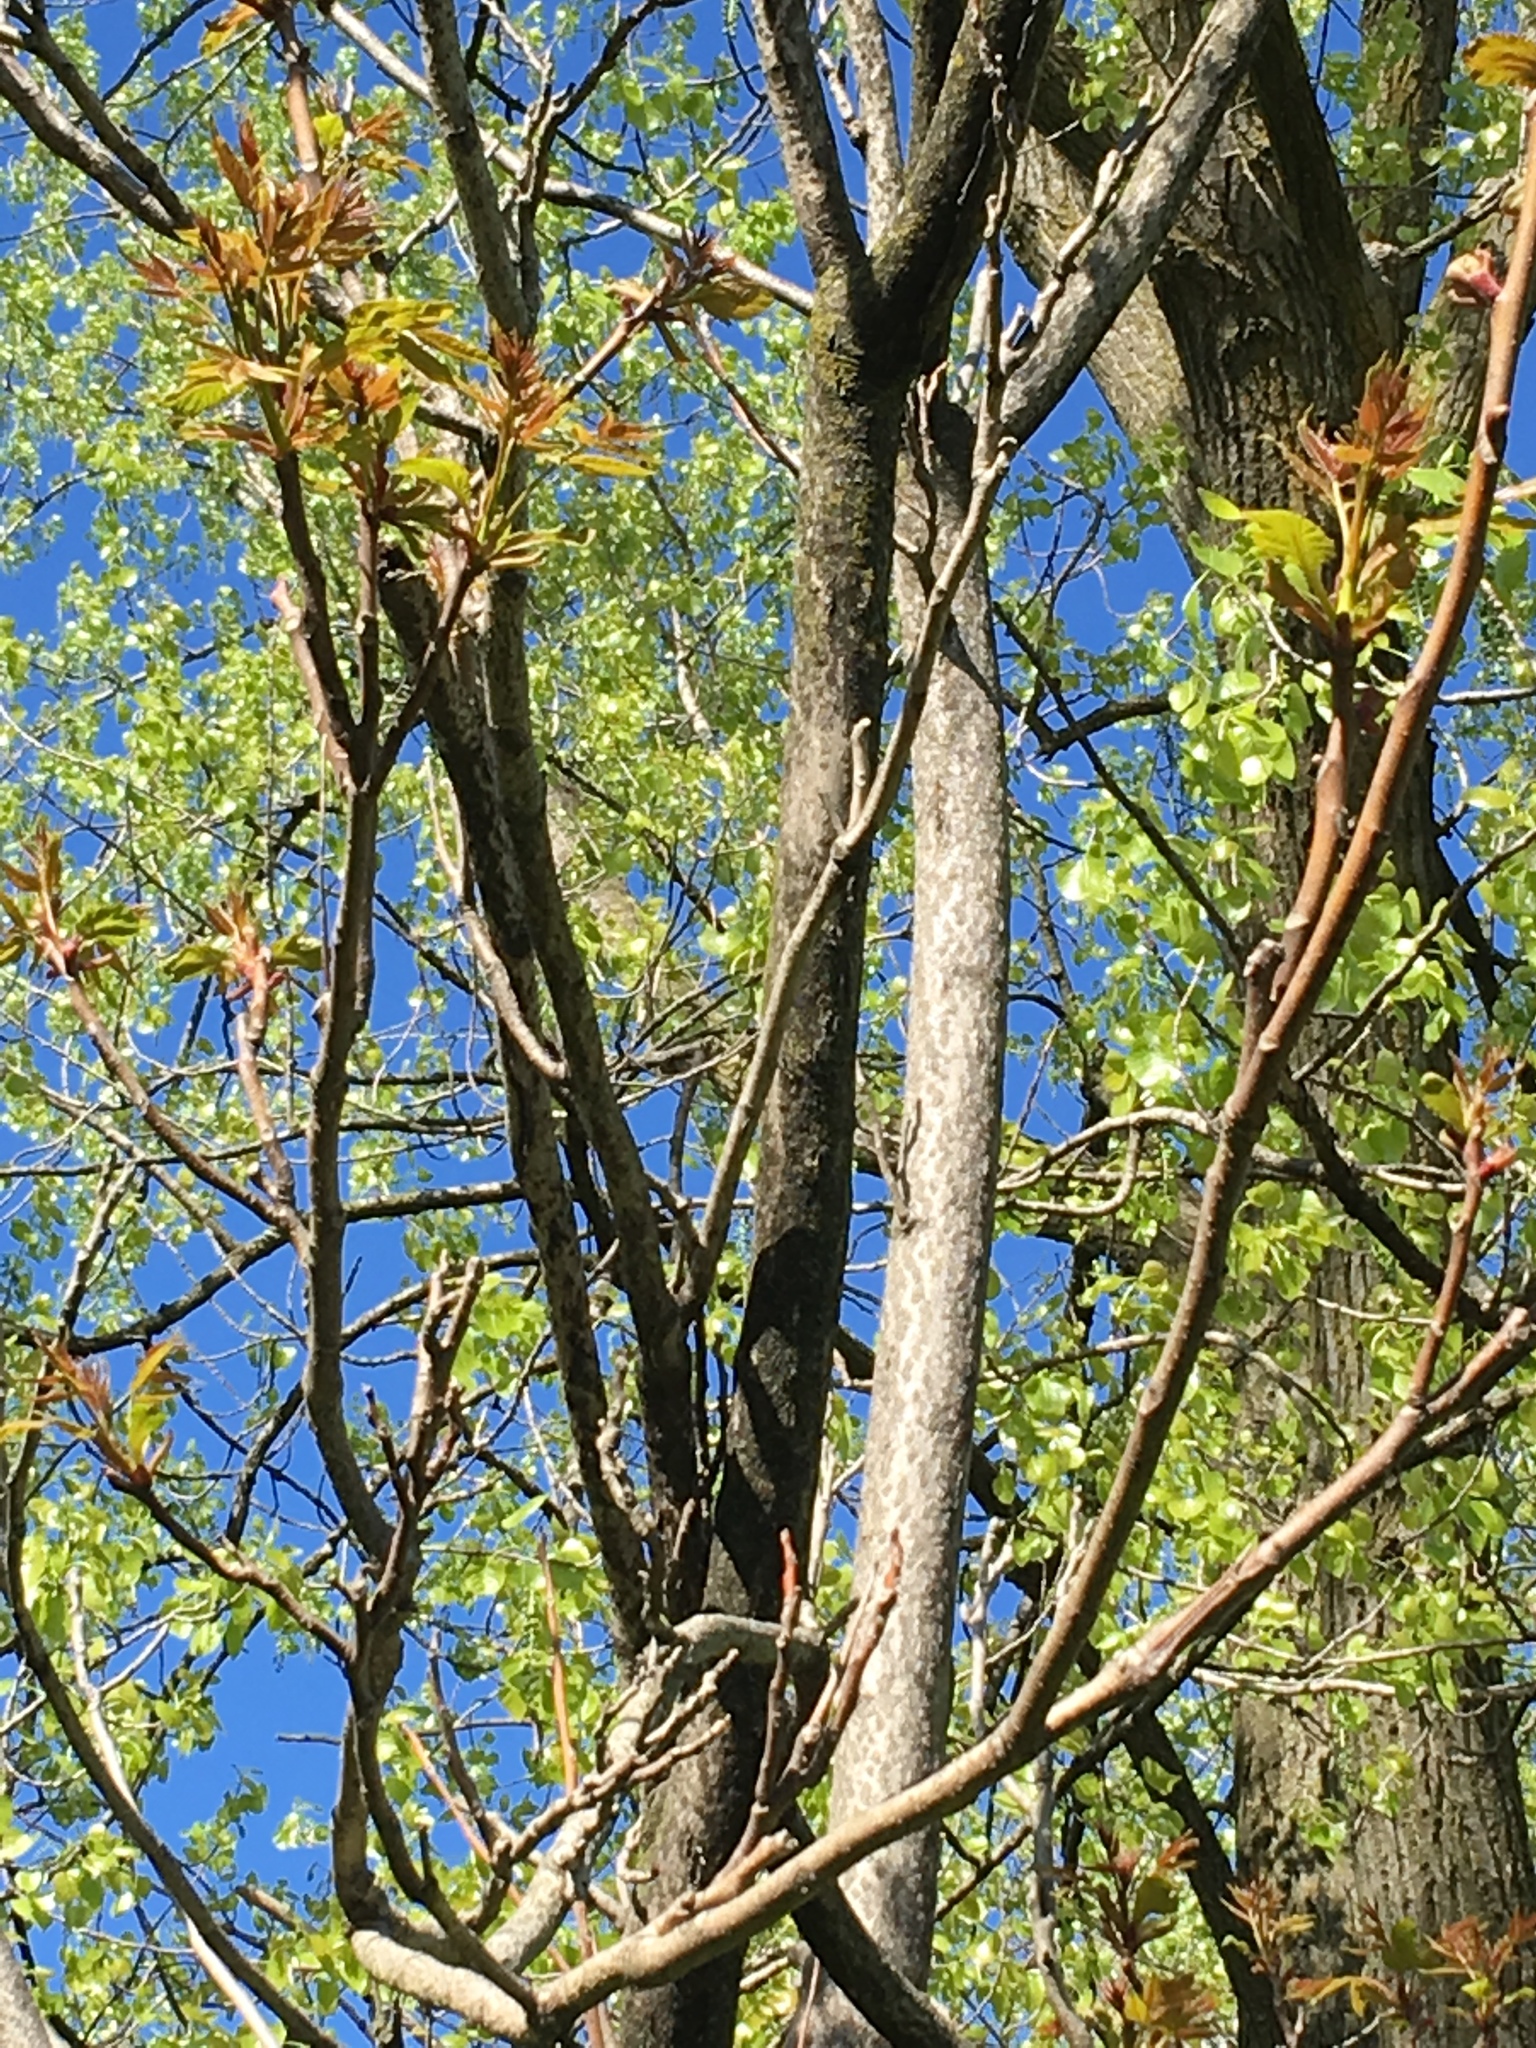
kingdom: Plantae
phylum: Tracheophyta
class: Magnoliopsida
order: Sapindales
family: Simaroubaceae
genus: Ailanthus
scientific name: Ailanthus altissima
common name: Tree-of-heaven
